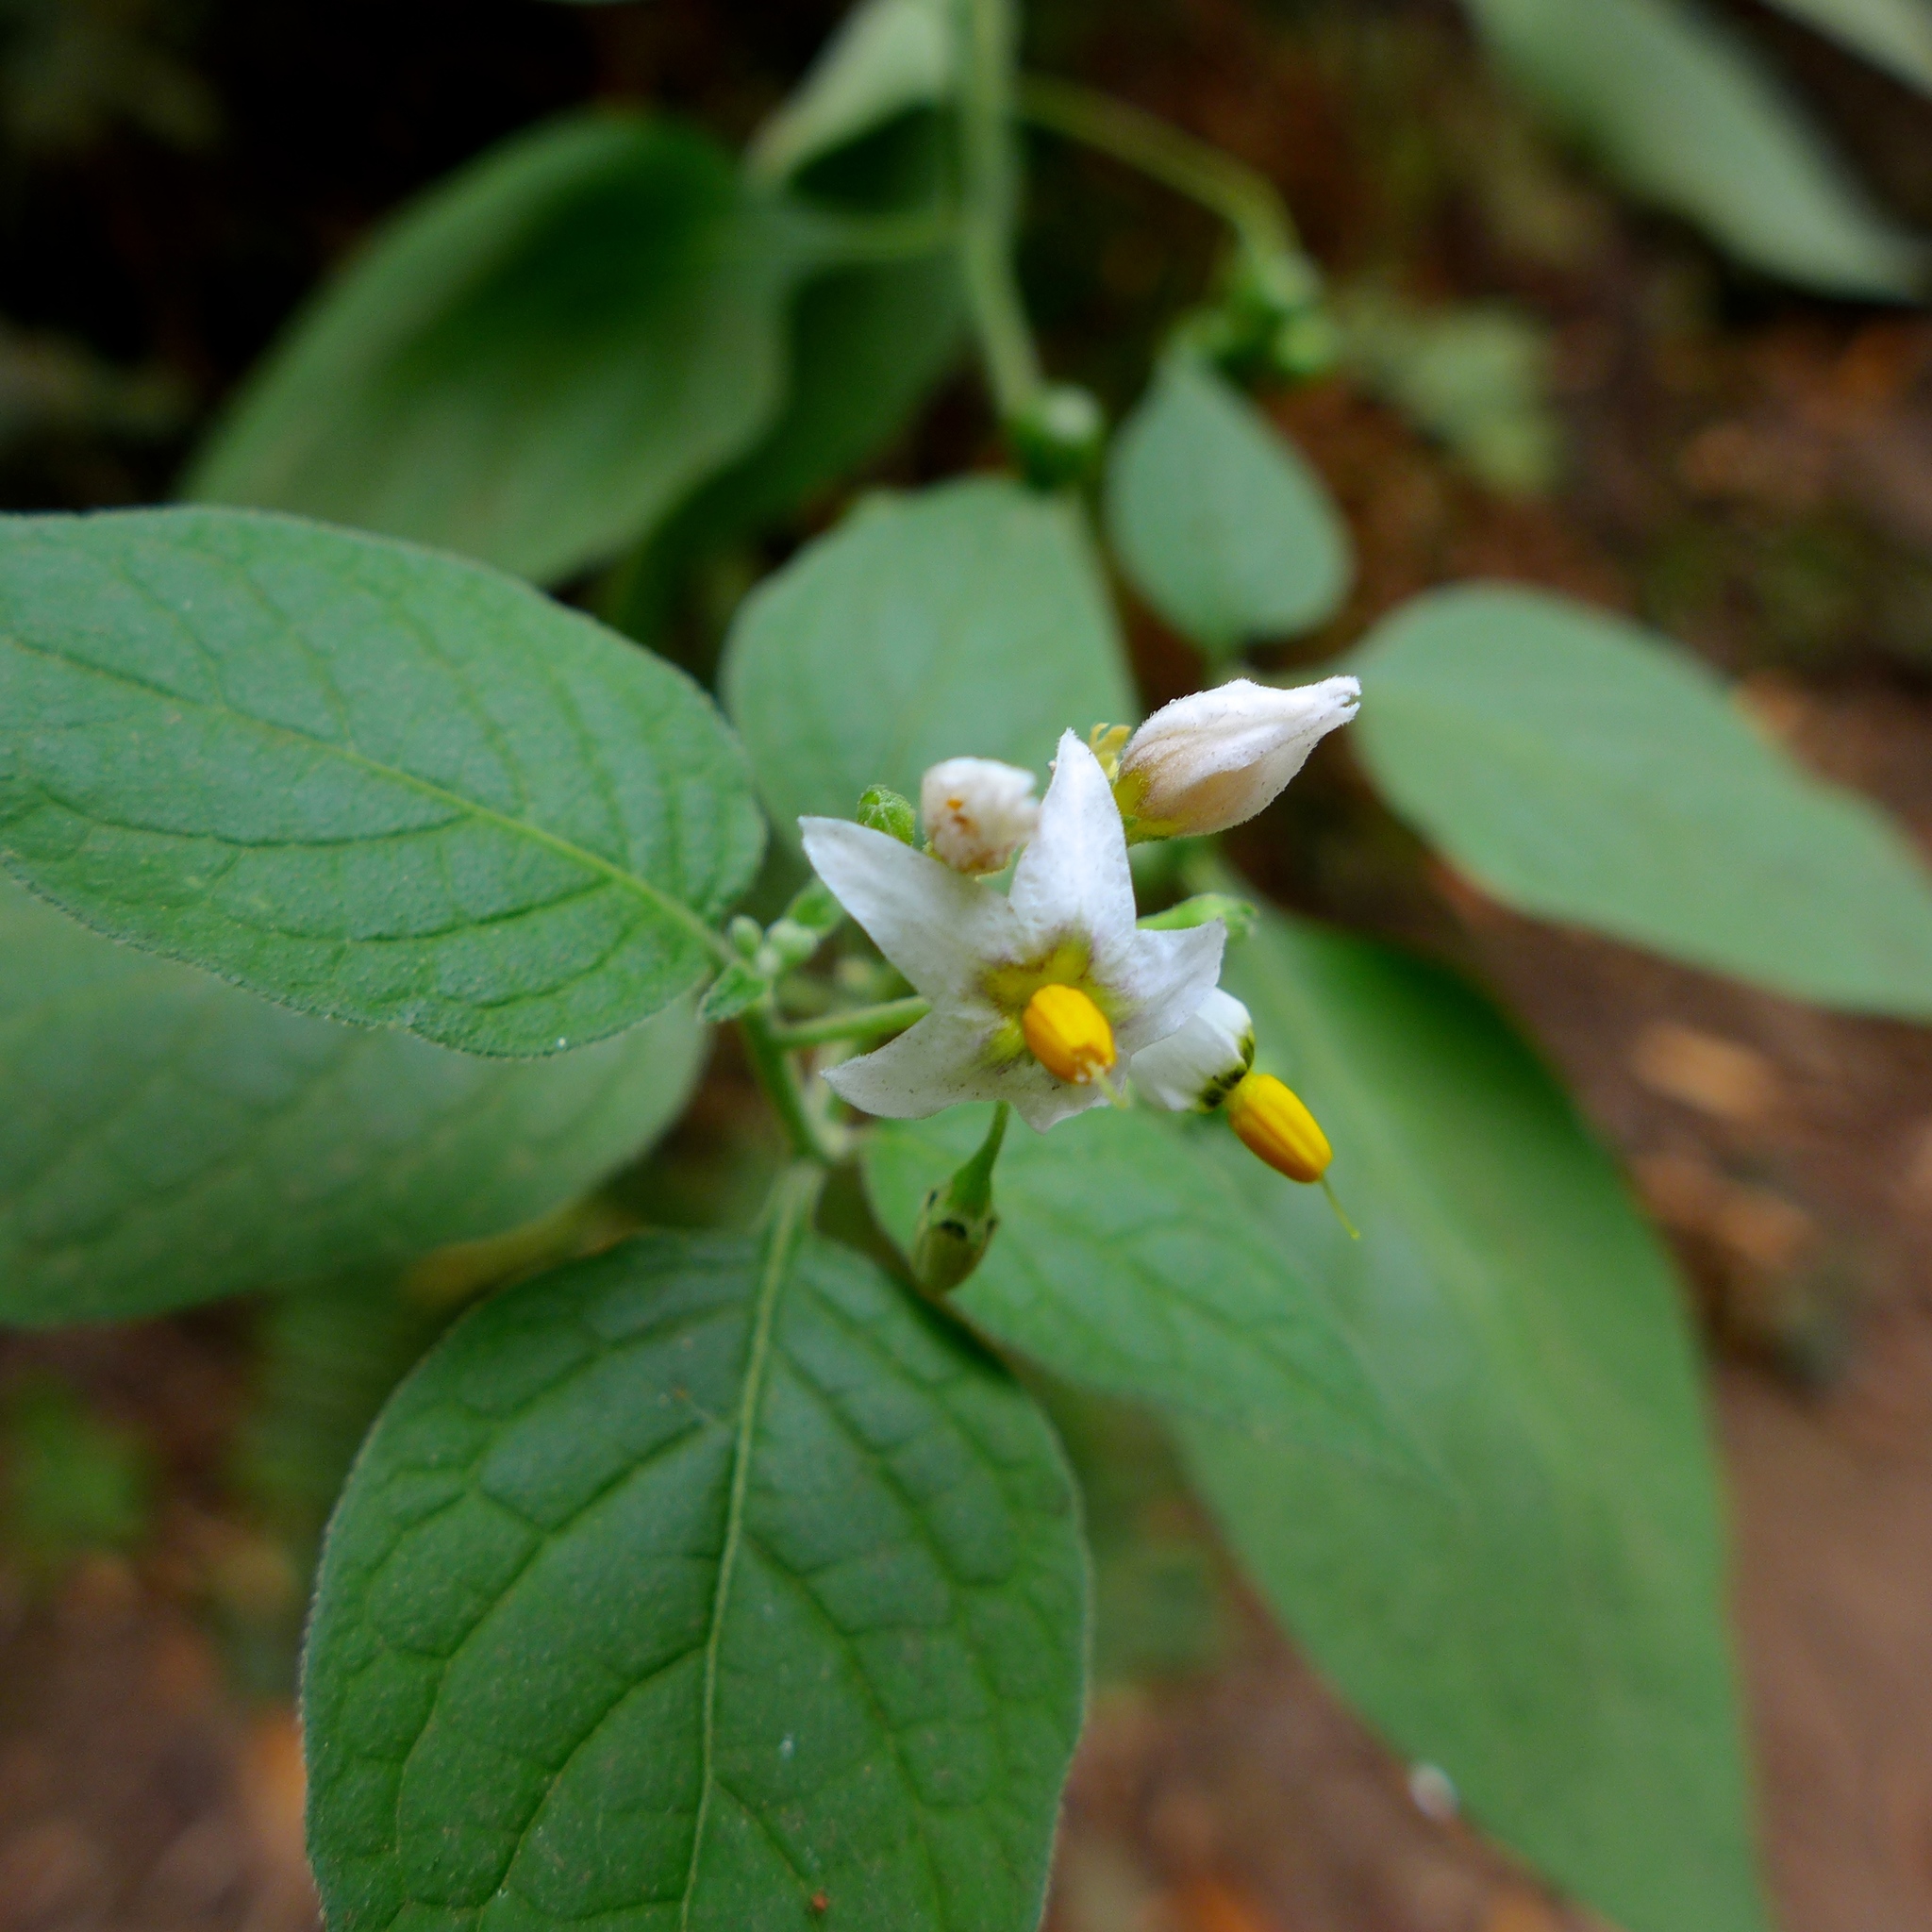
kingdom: Plantae
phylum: Tracheophyta
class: Magnoliopsida
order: Solanales
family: Solanaceae
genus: Solanum
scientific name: Solanum douglasii
